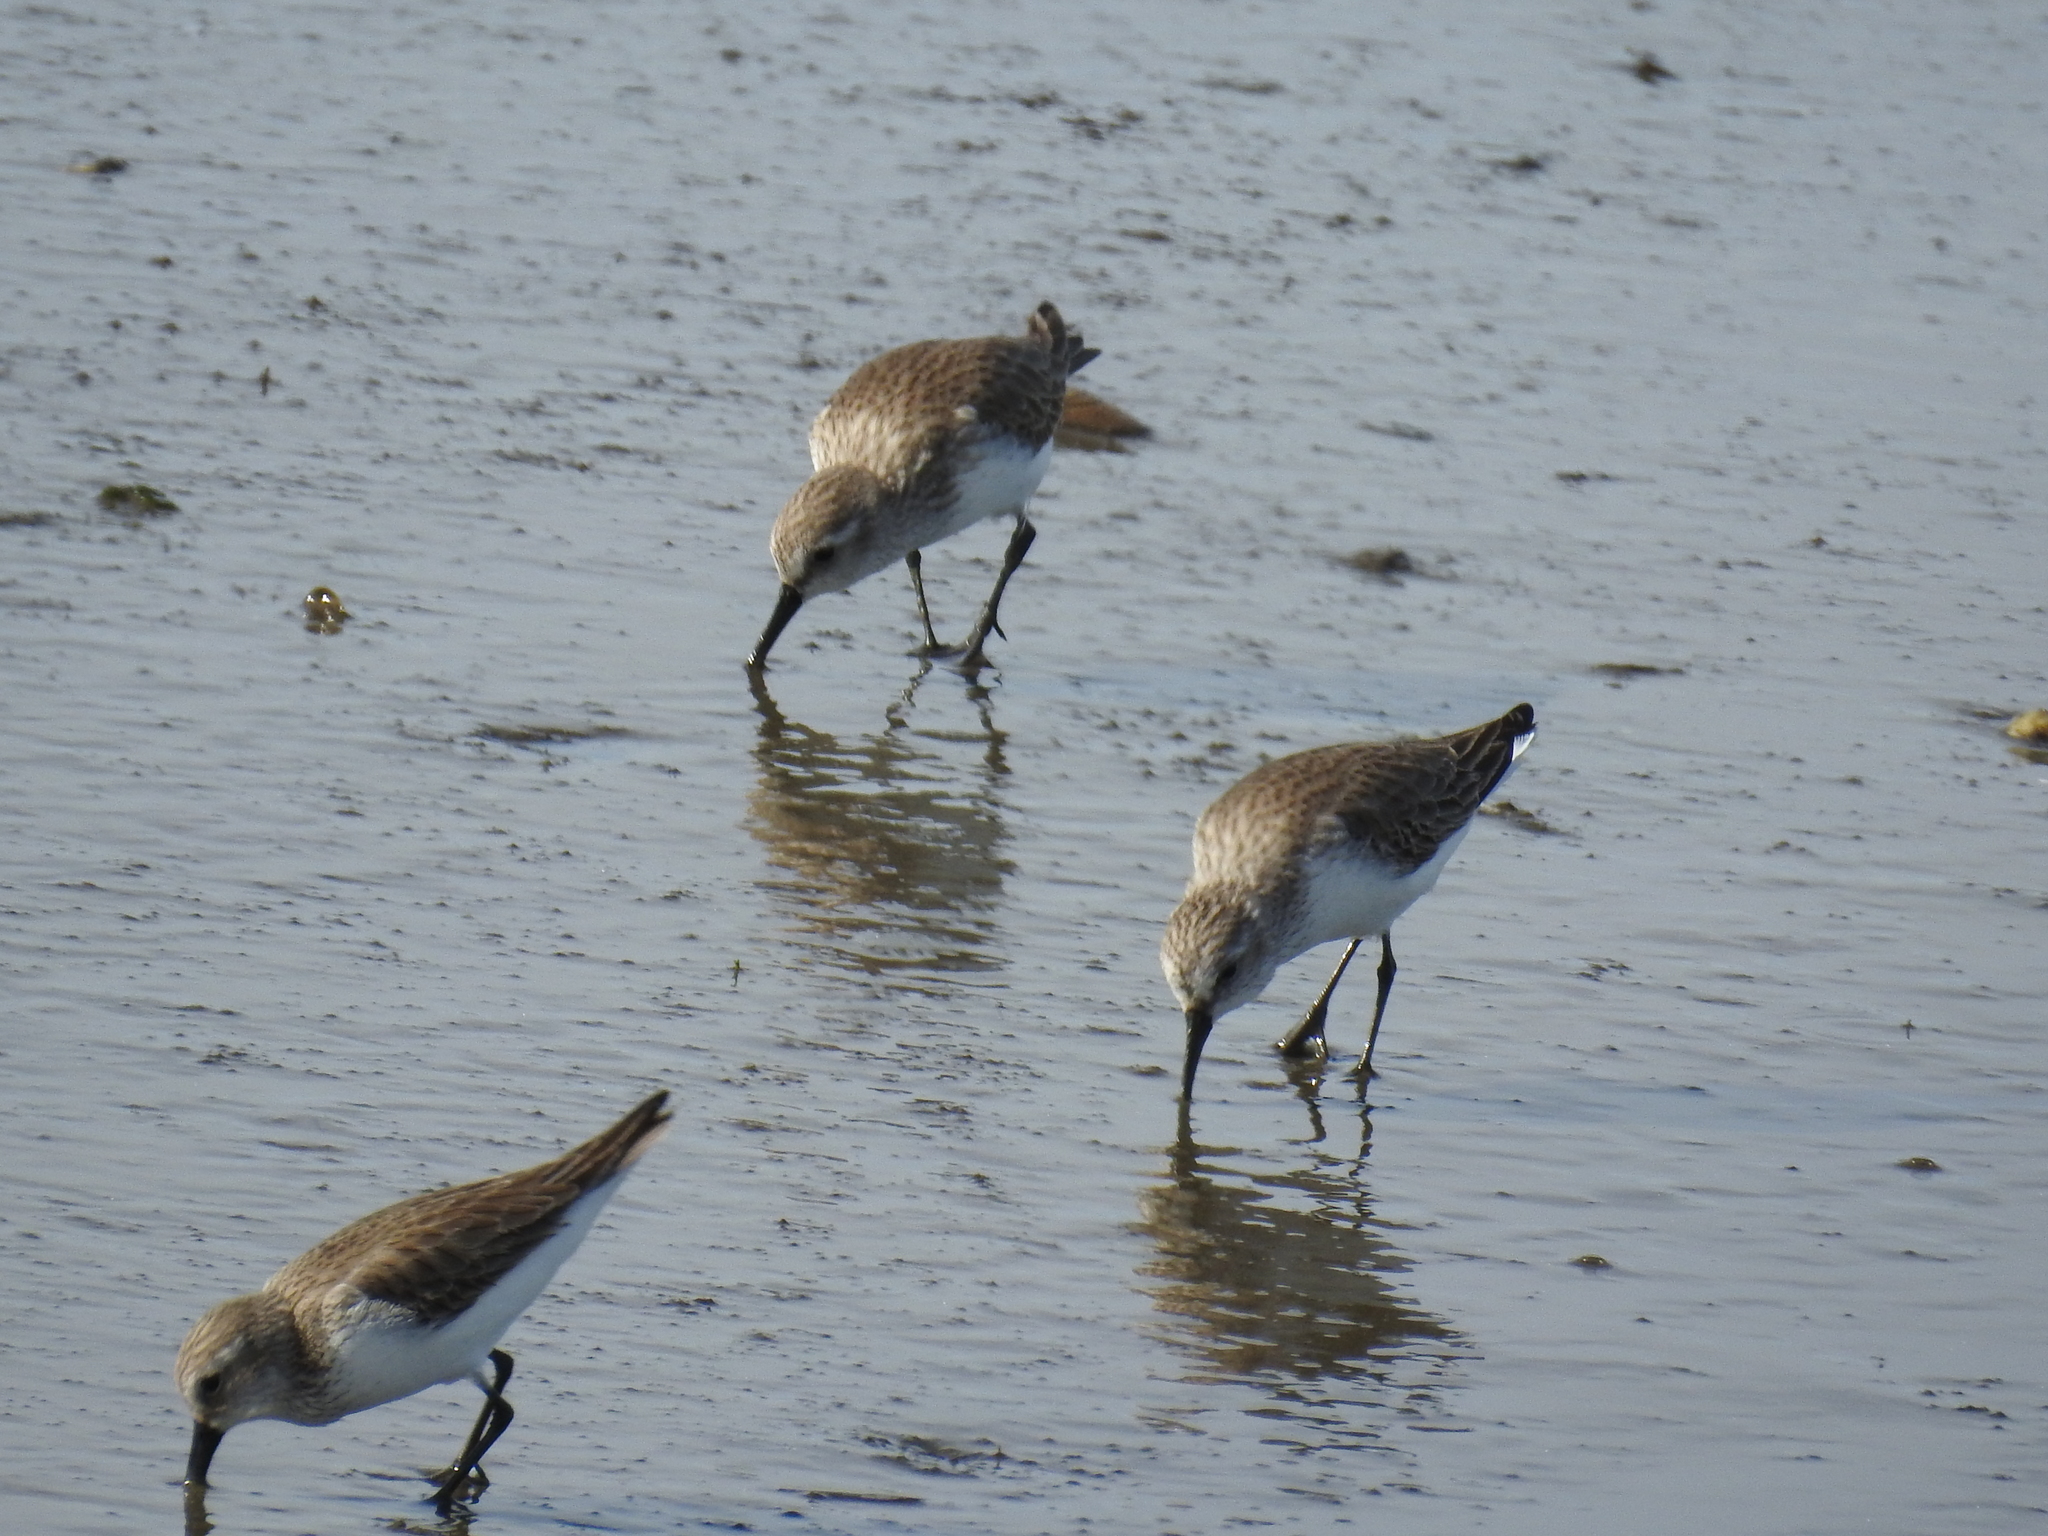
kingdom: Animalia
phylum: Chordata
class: Aves
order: Charadriiformes
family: Scolopacidae
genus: Calidris
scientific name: Calidris mauri
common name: Western sandpiper
